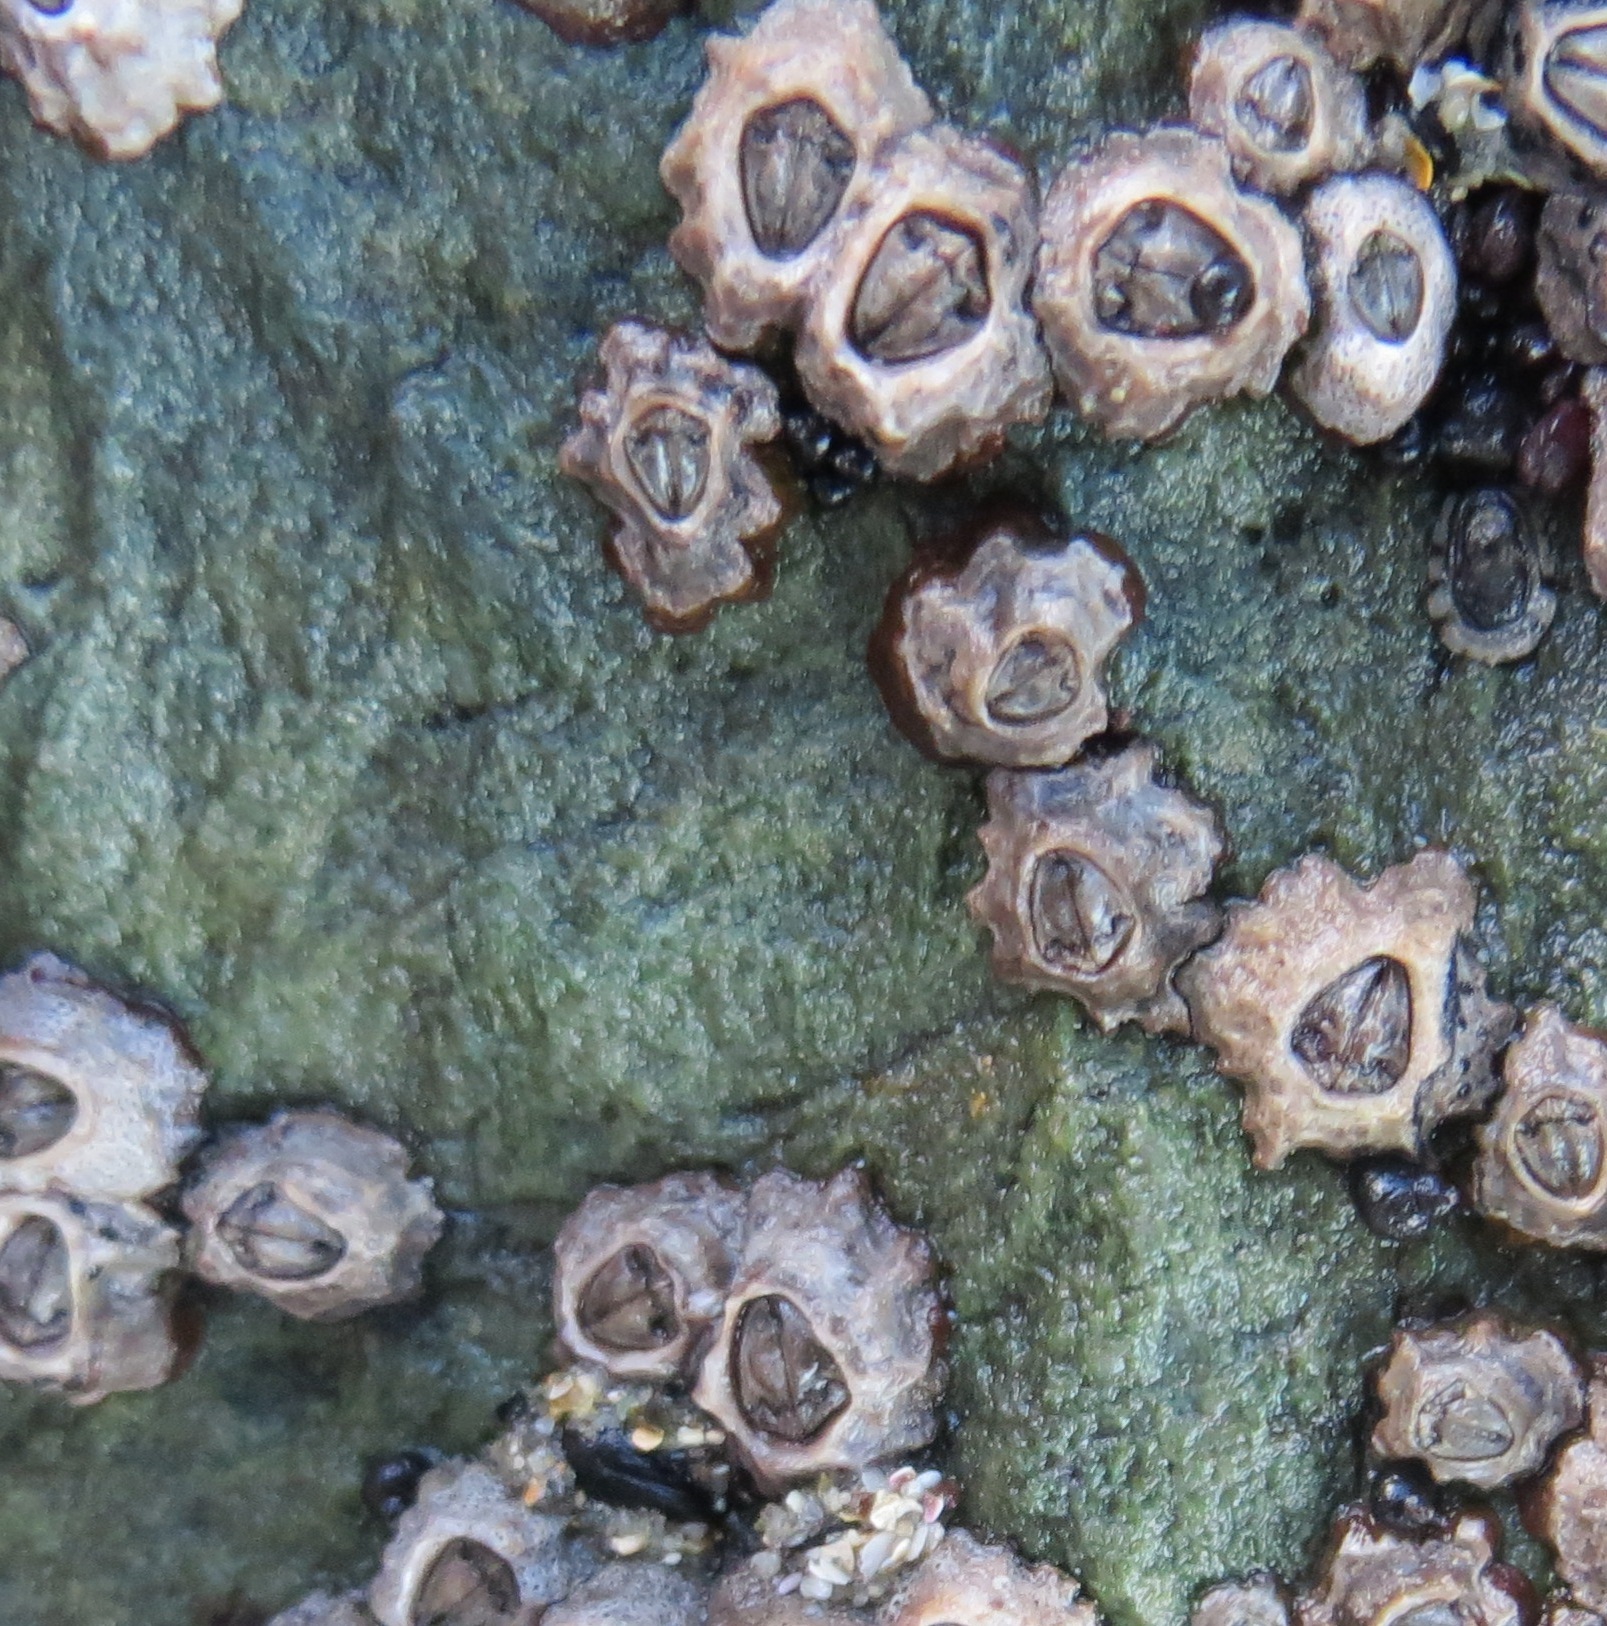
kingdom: Animalia
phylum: Arthropoda
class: Maxillopoda
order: Sessilia
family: Chthamalidae
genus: Chamaesipho
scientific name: Chamaesipho columna
